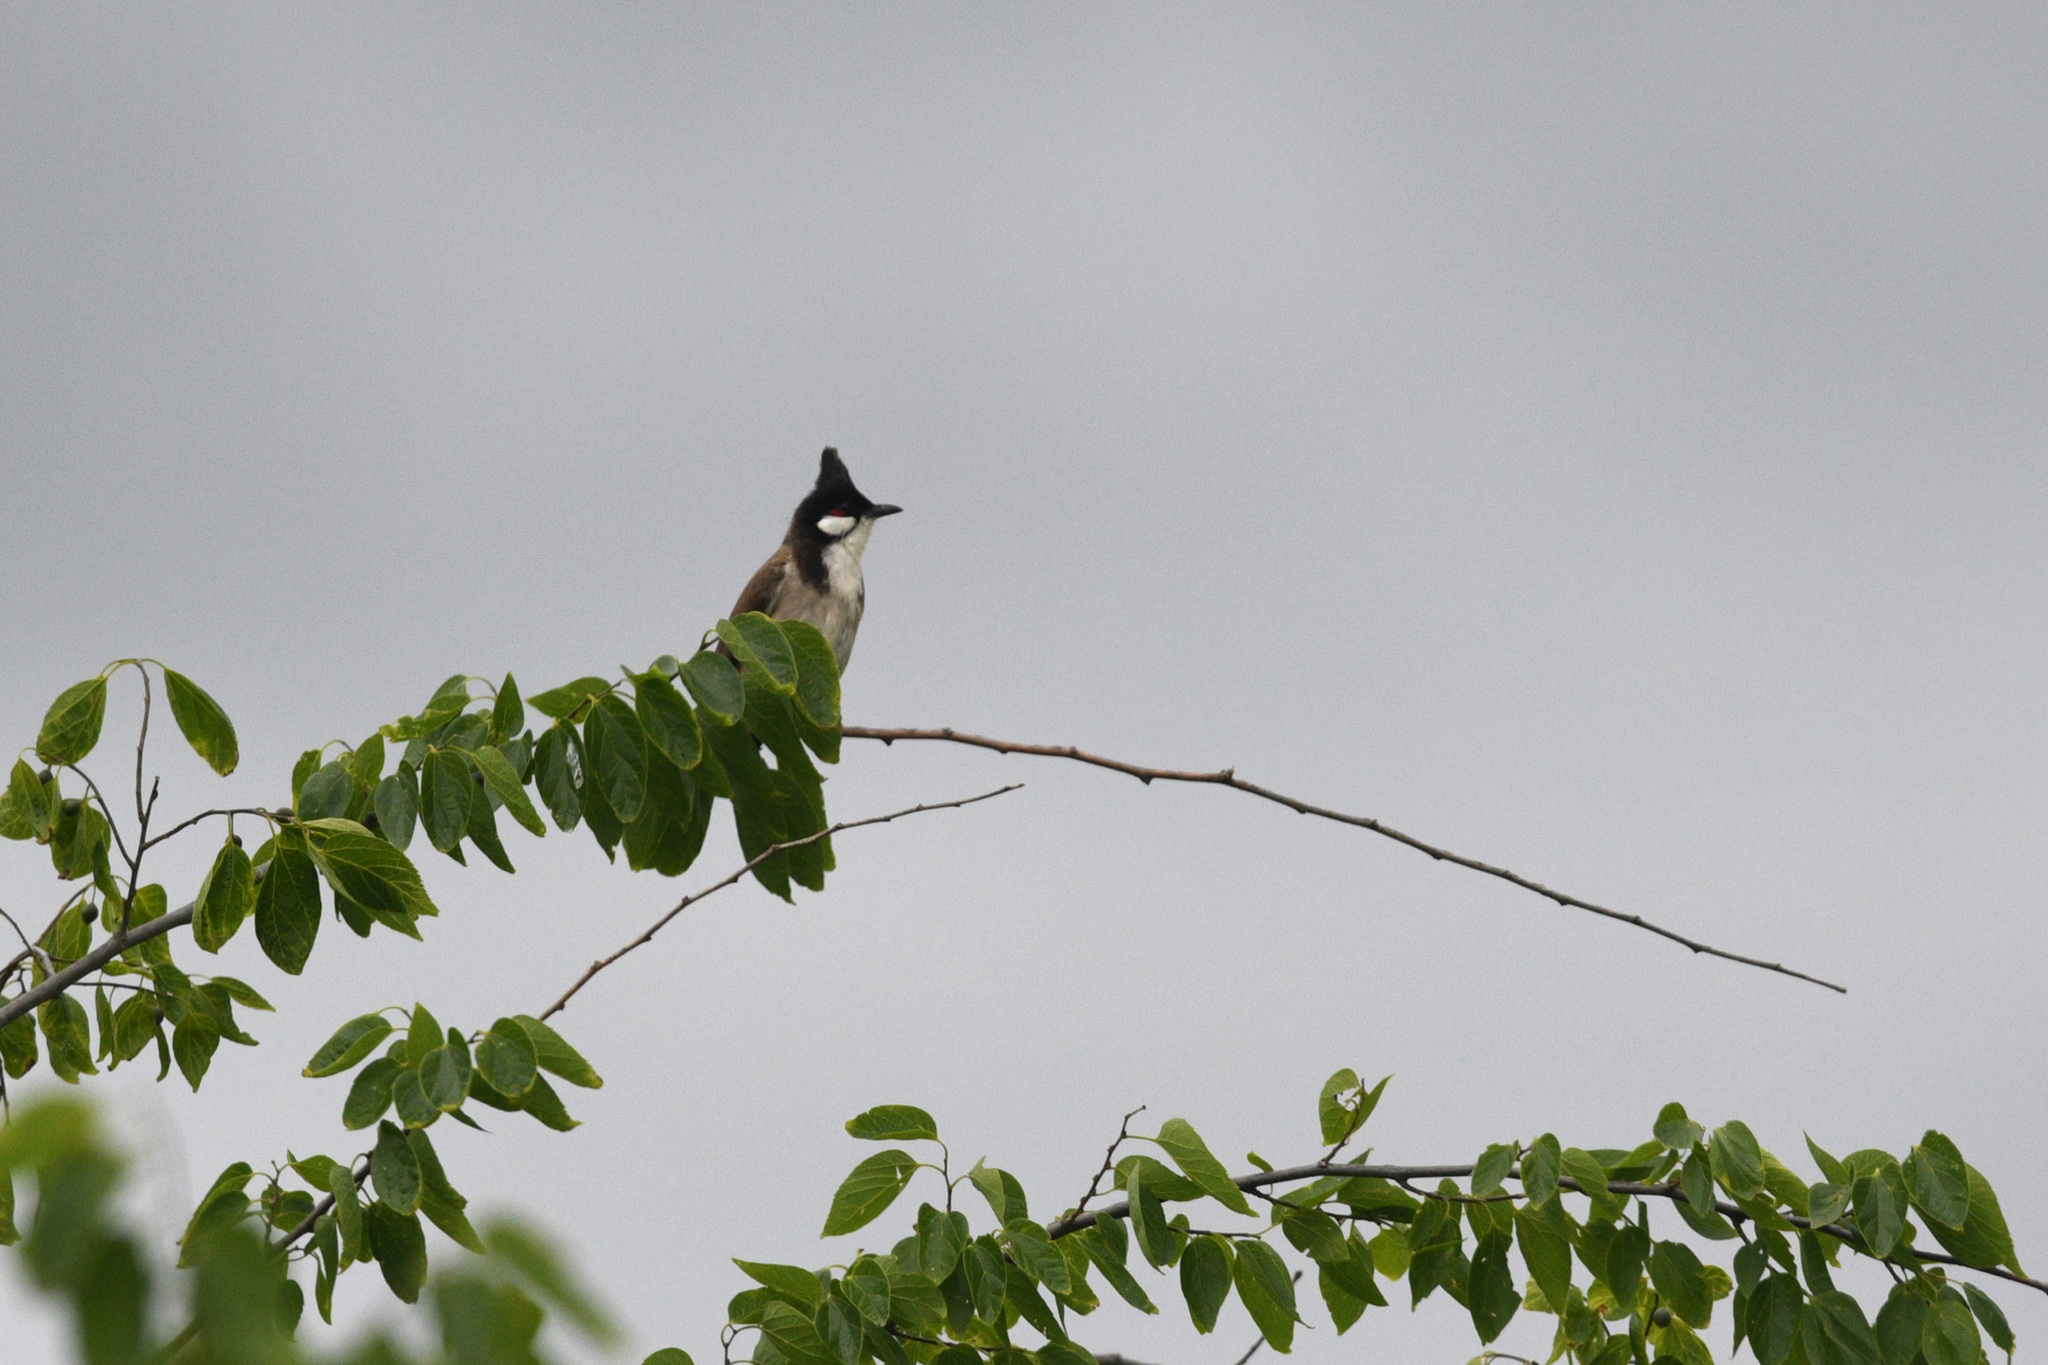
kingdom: Animalia
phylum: Chordata
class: Aves
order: Passeriformes
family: Pycnonotidae
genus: Pycnonotus
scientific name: Pycnonotus jocosus
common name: Red-whiskered bulbul
